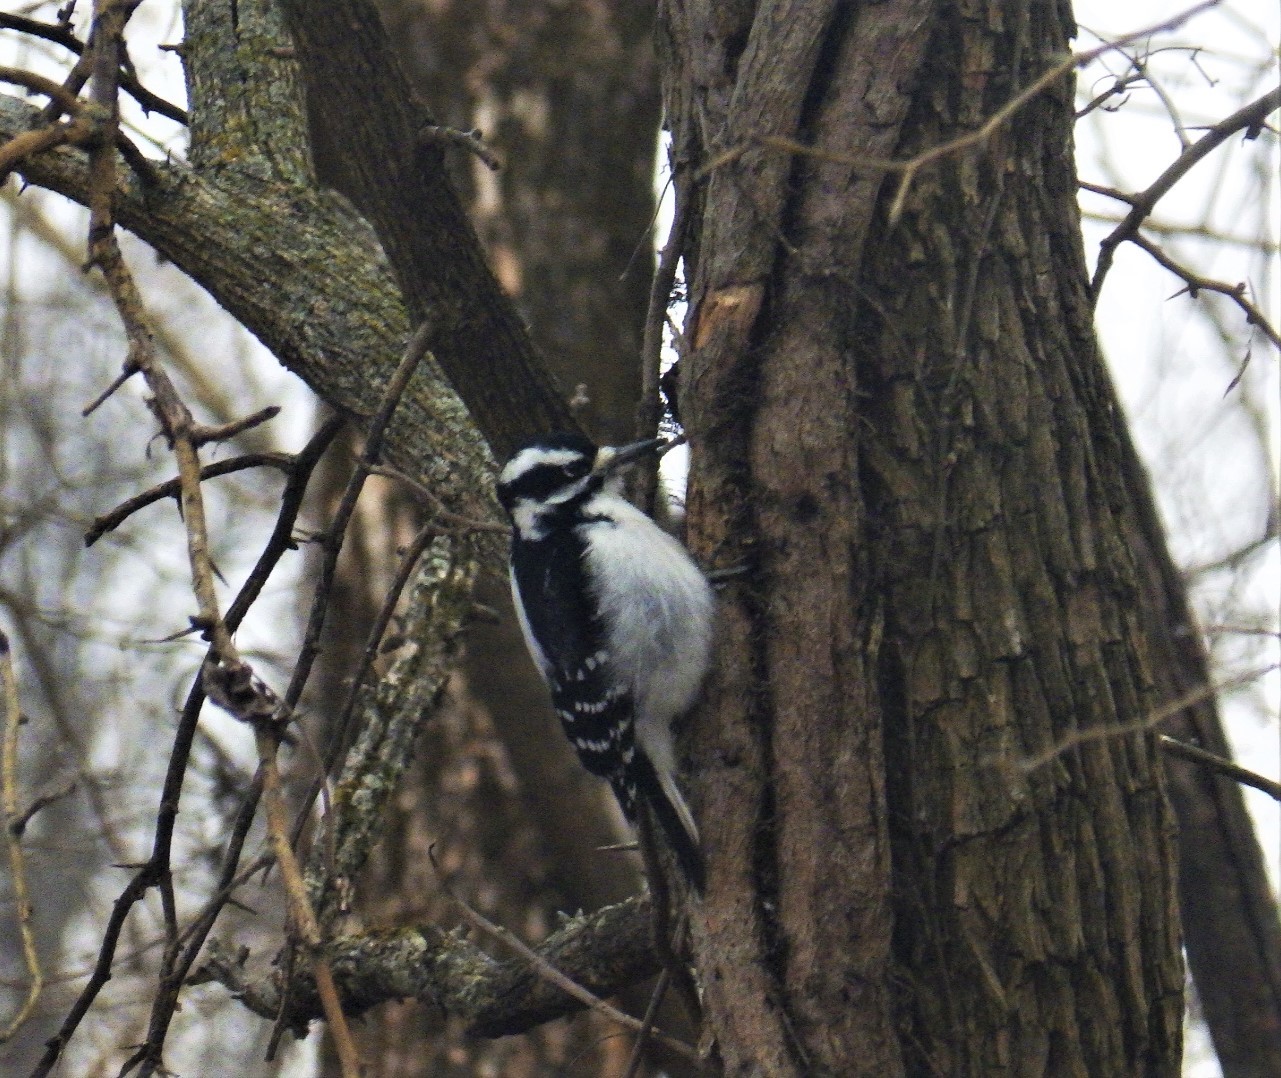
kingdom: Animalia
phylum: Chordata
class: Aves
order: Piciformes
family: Picidae
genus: Leuconotopicus
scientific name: Leuconotopicus villosus
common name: Hairy woodpecker
